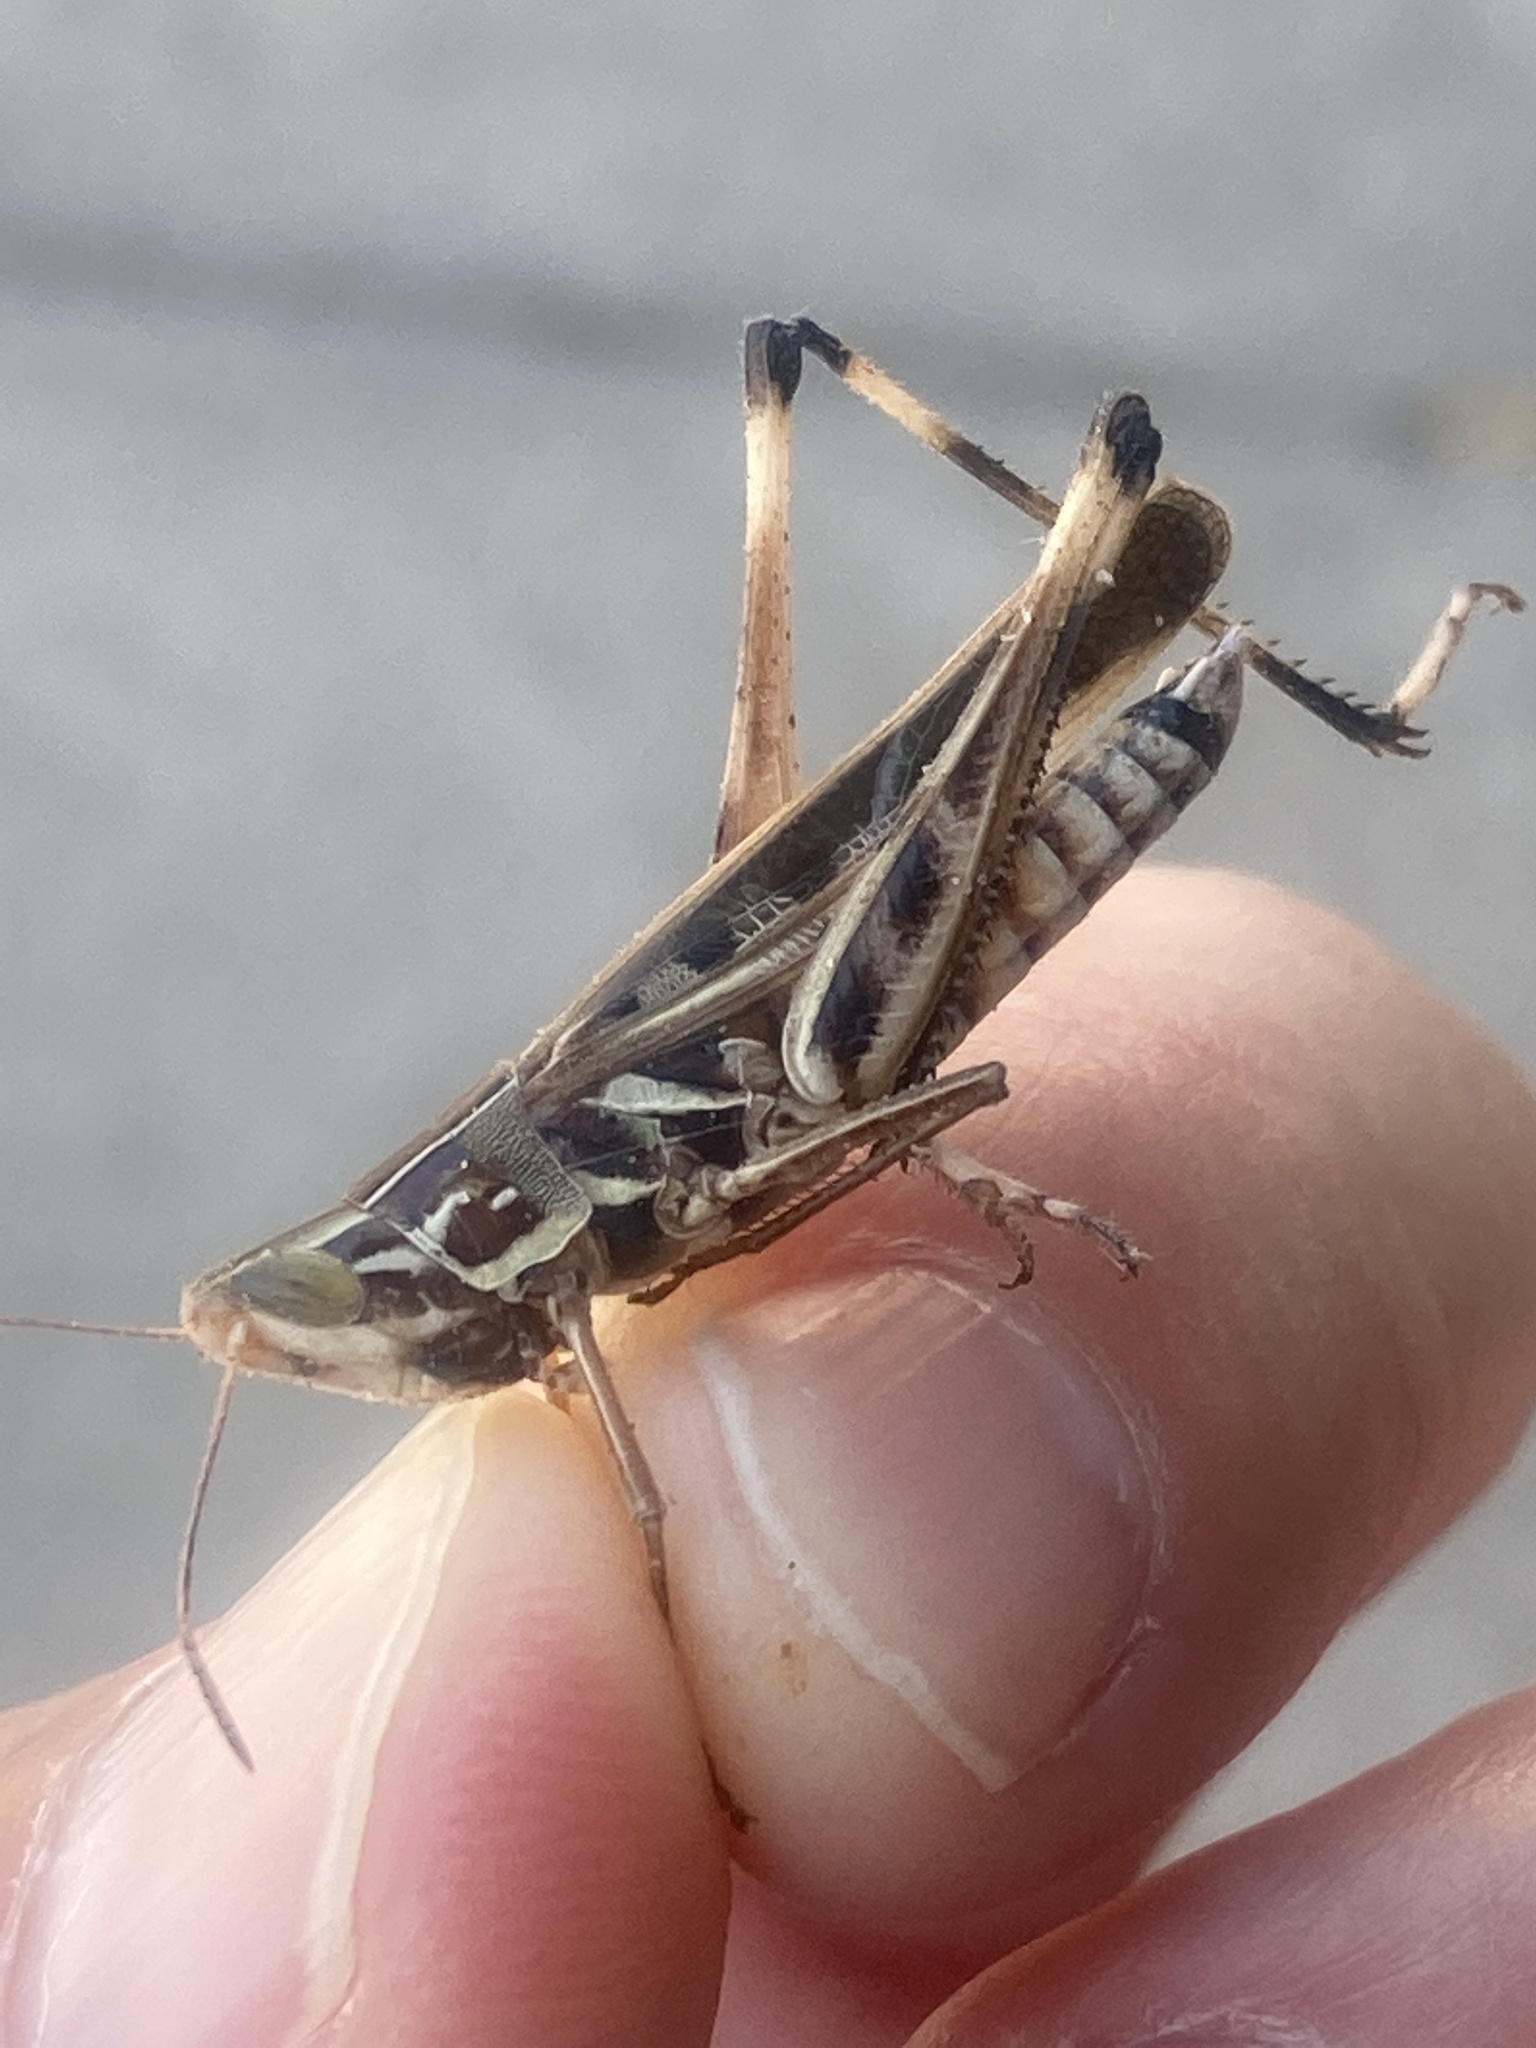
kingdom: Animalia
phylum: Arthropoda
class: Insecta
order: Orthoptera
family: Acrididae
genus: Syrbula
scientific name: Syrbula admirabilis
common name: Handsome grasshopper
